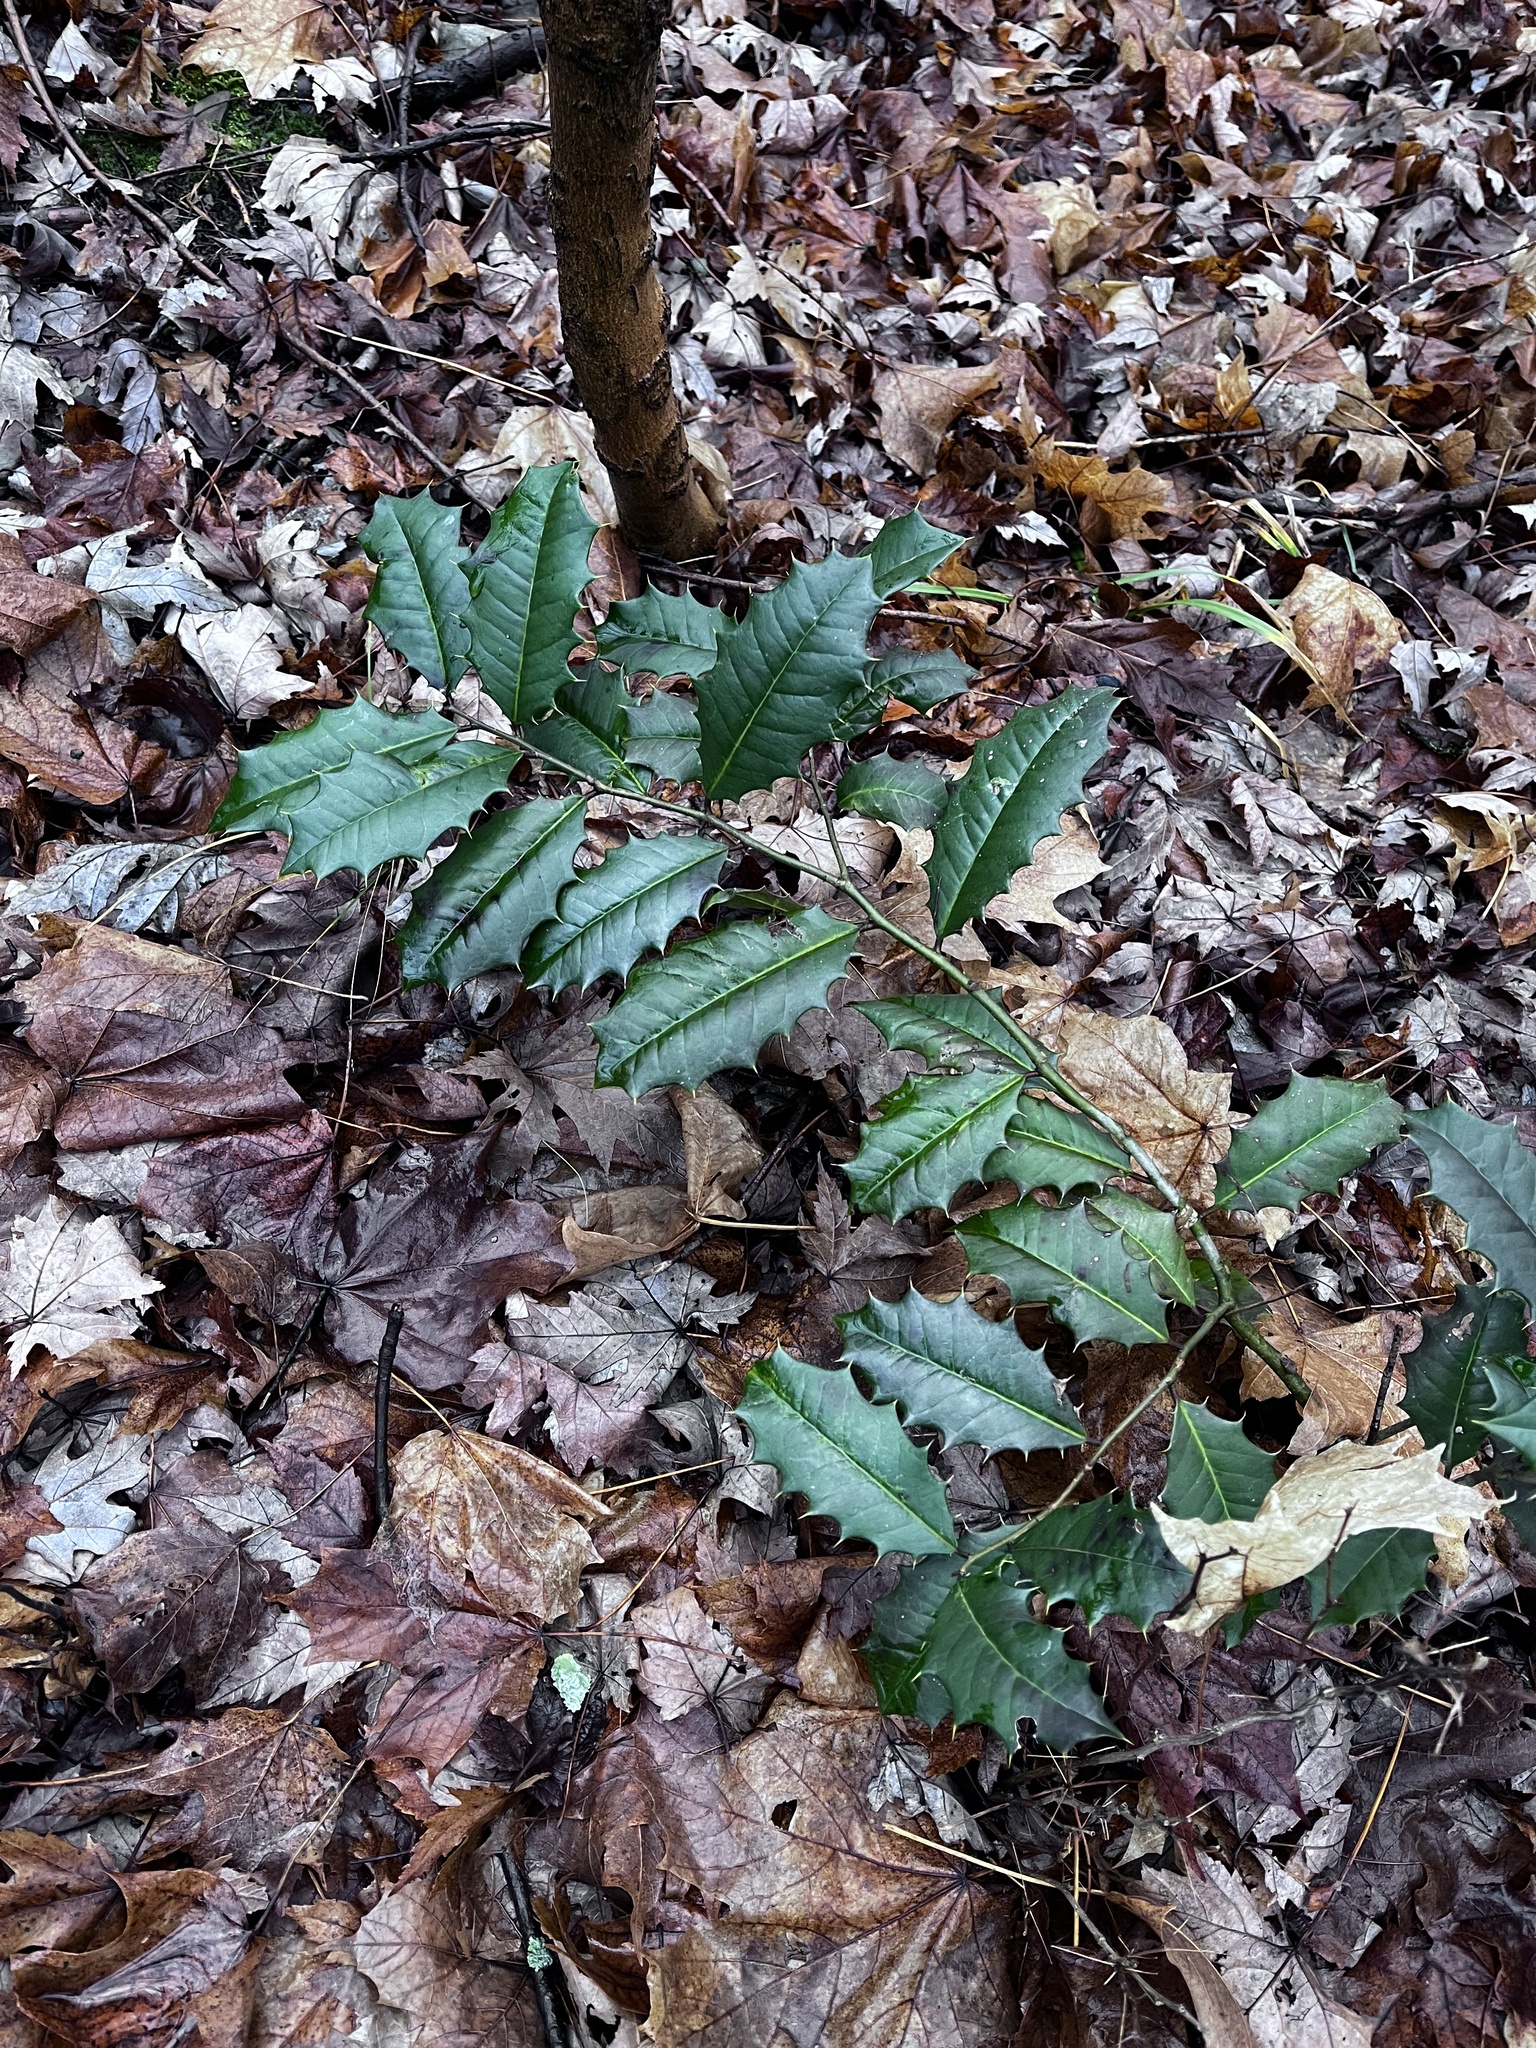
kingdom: Plantae
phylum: Tracheophyta
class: Magnoliopsida
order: Aquifoliales
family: Aquifoliaceae
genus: Ilex
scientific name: Ilex opaca
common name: American holly
